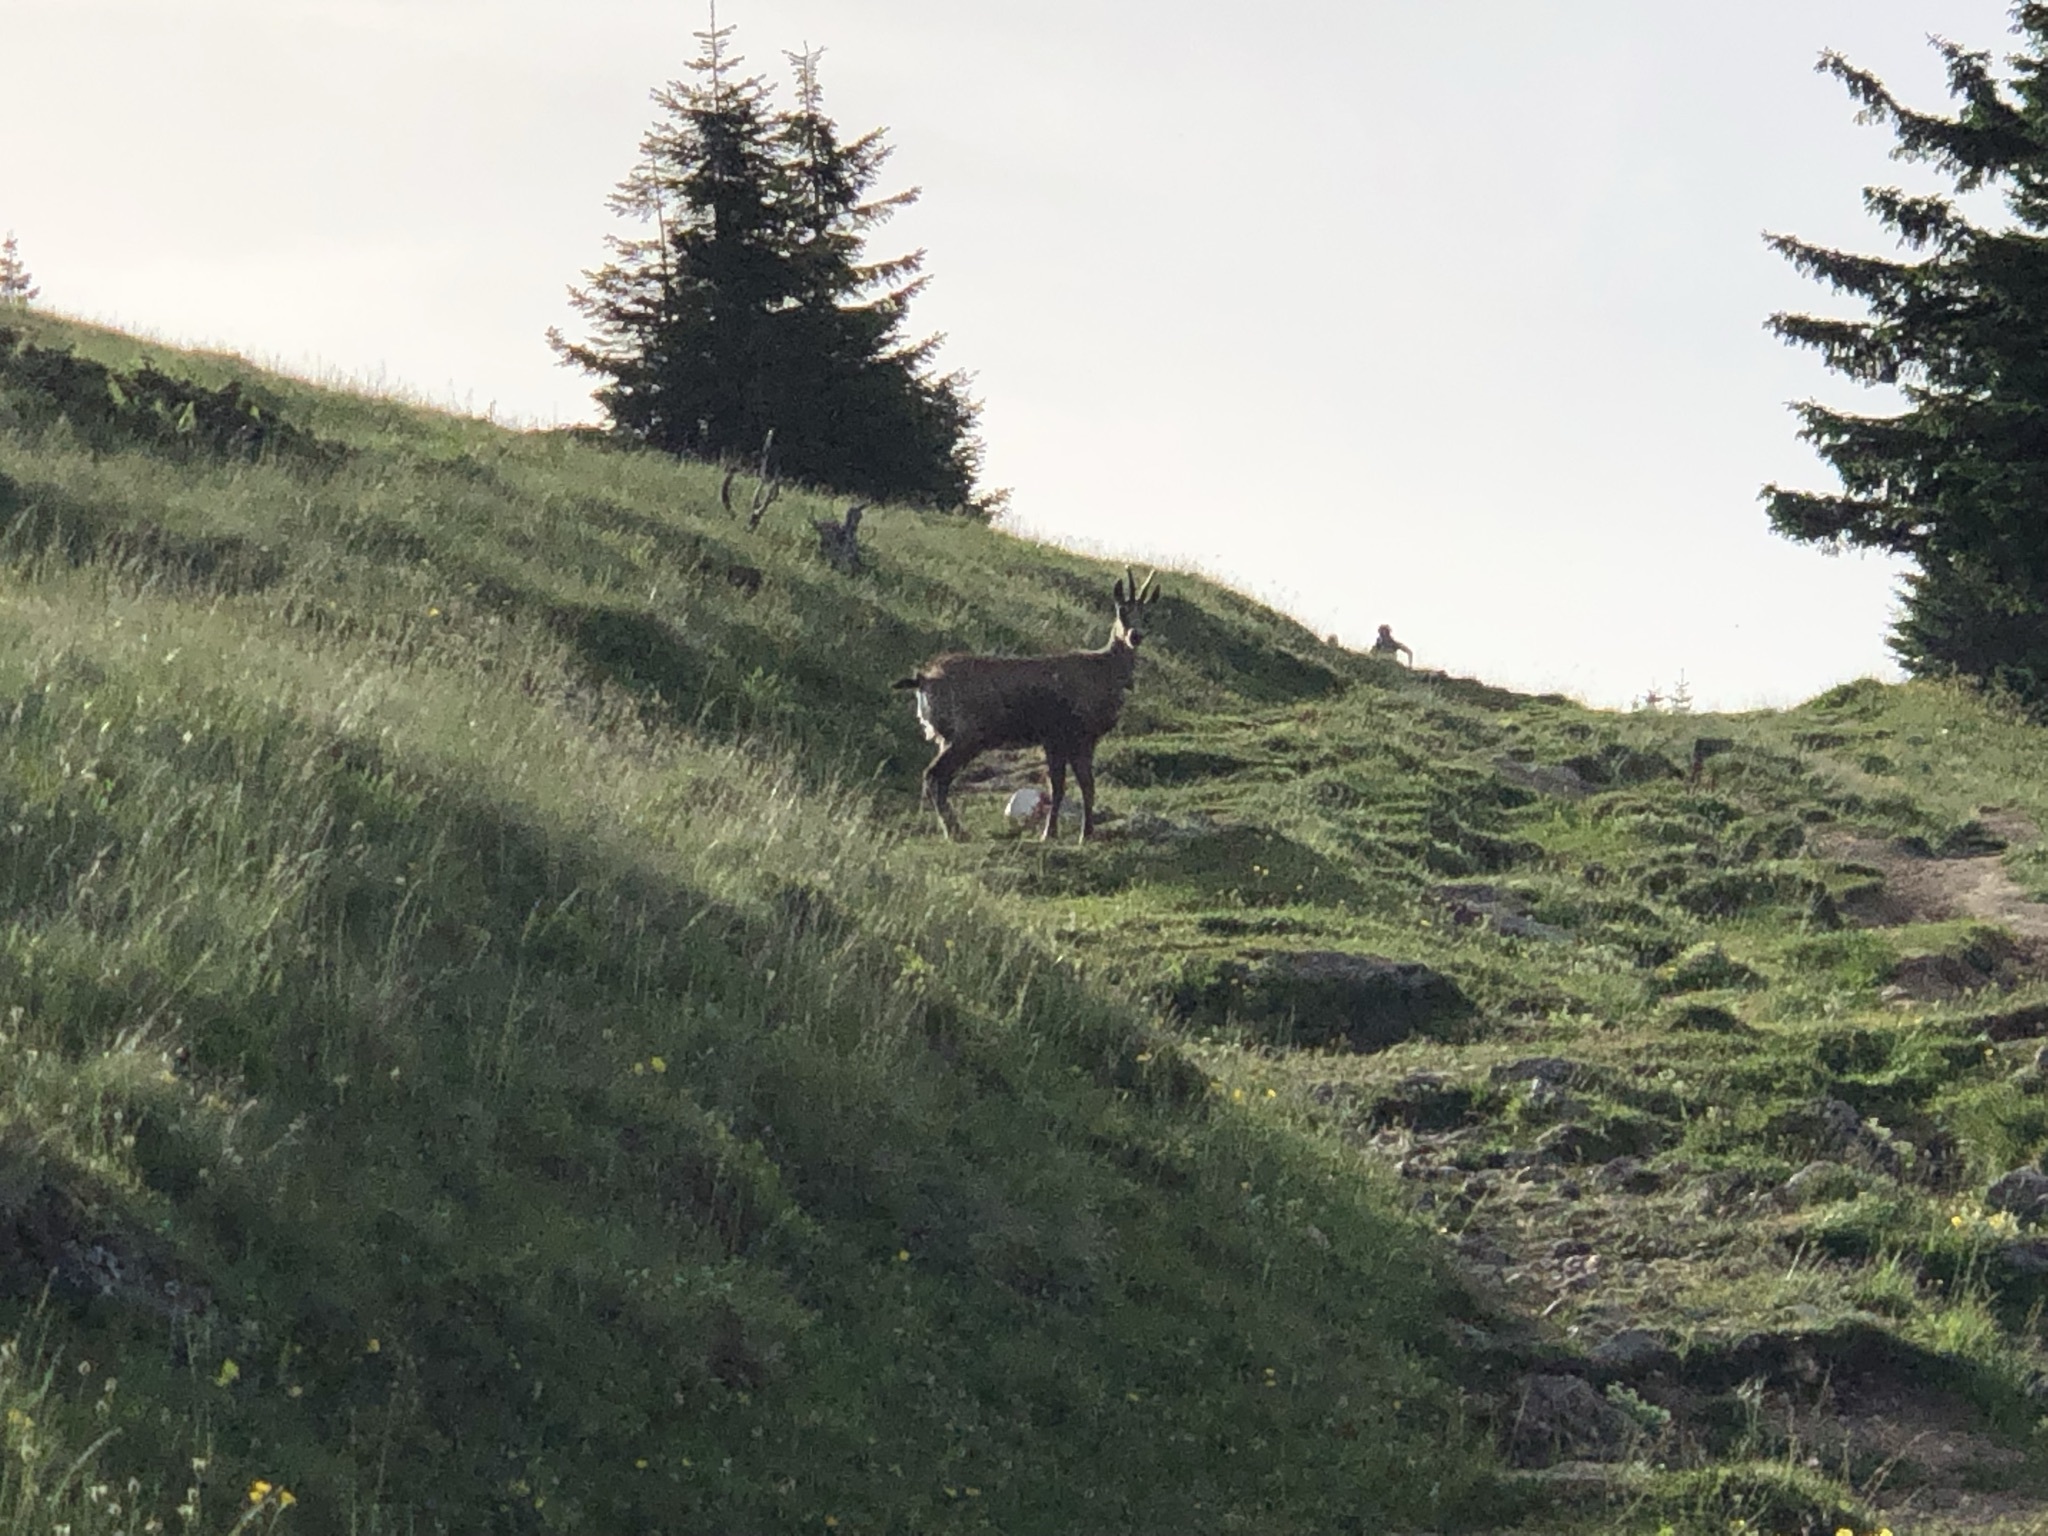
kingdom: Animalia
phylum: Chordata
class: Mammalia
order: Artiodactyla
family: Bovidae
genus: Rupicapra
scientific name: Rupicapra rupicapra
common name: Chamois
